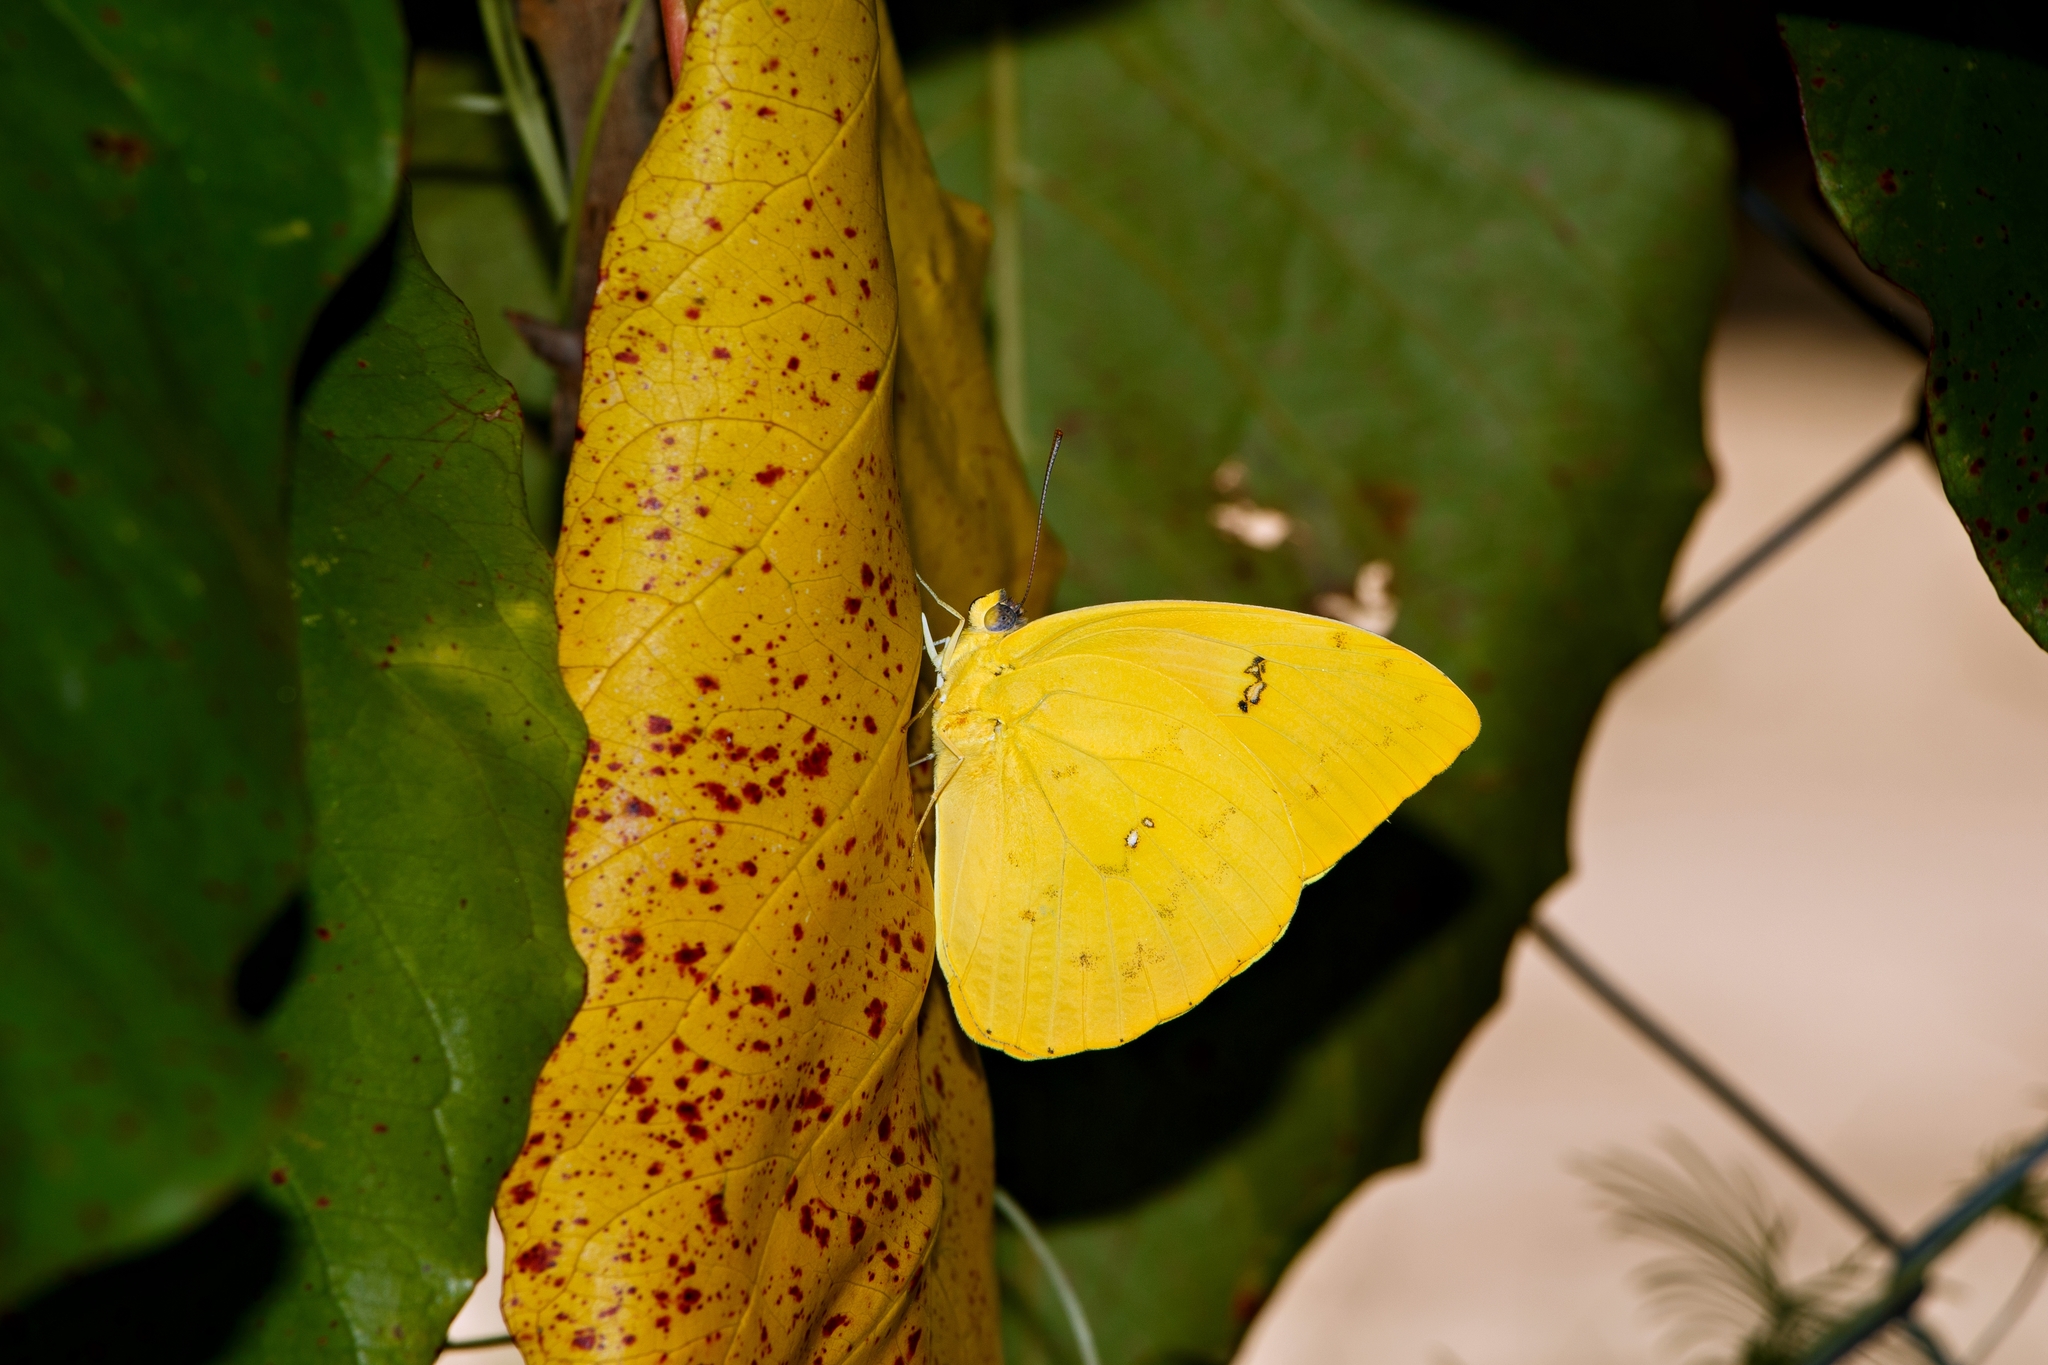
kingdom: Animalia
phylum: Arthropoda
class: Insecta
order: Lepidoptera
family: Pieridae
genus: Phoebis
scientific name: Phoebis philea
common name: Orange-barred giant sulphur
